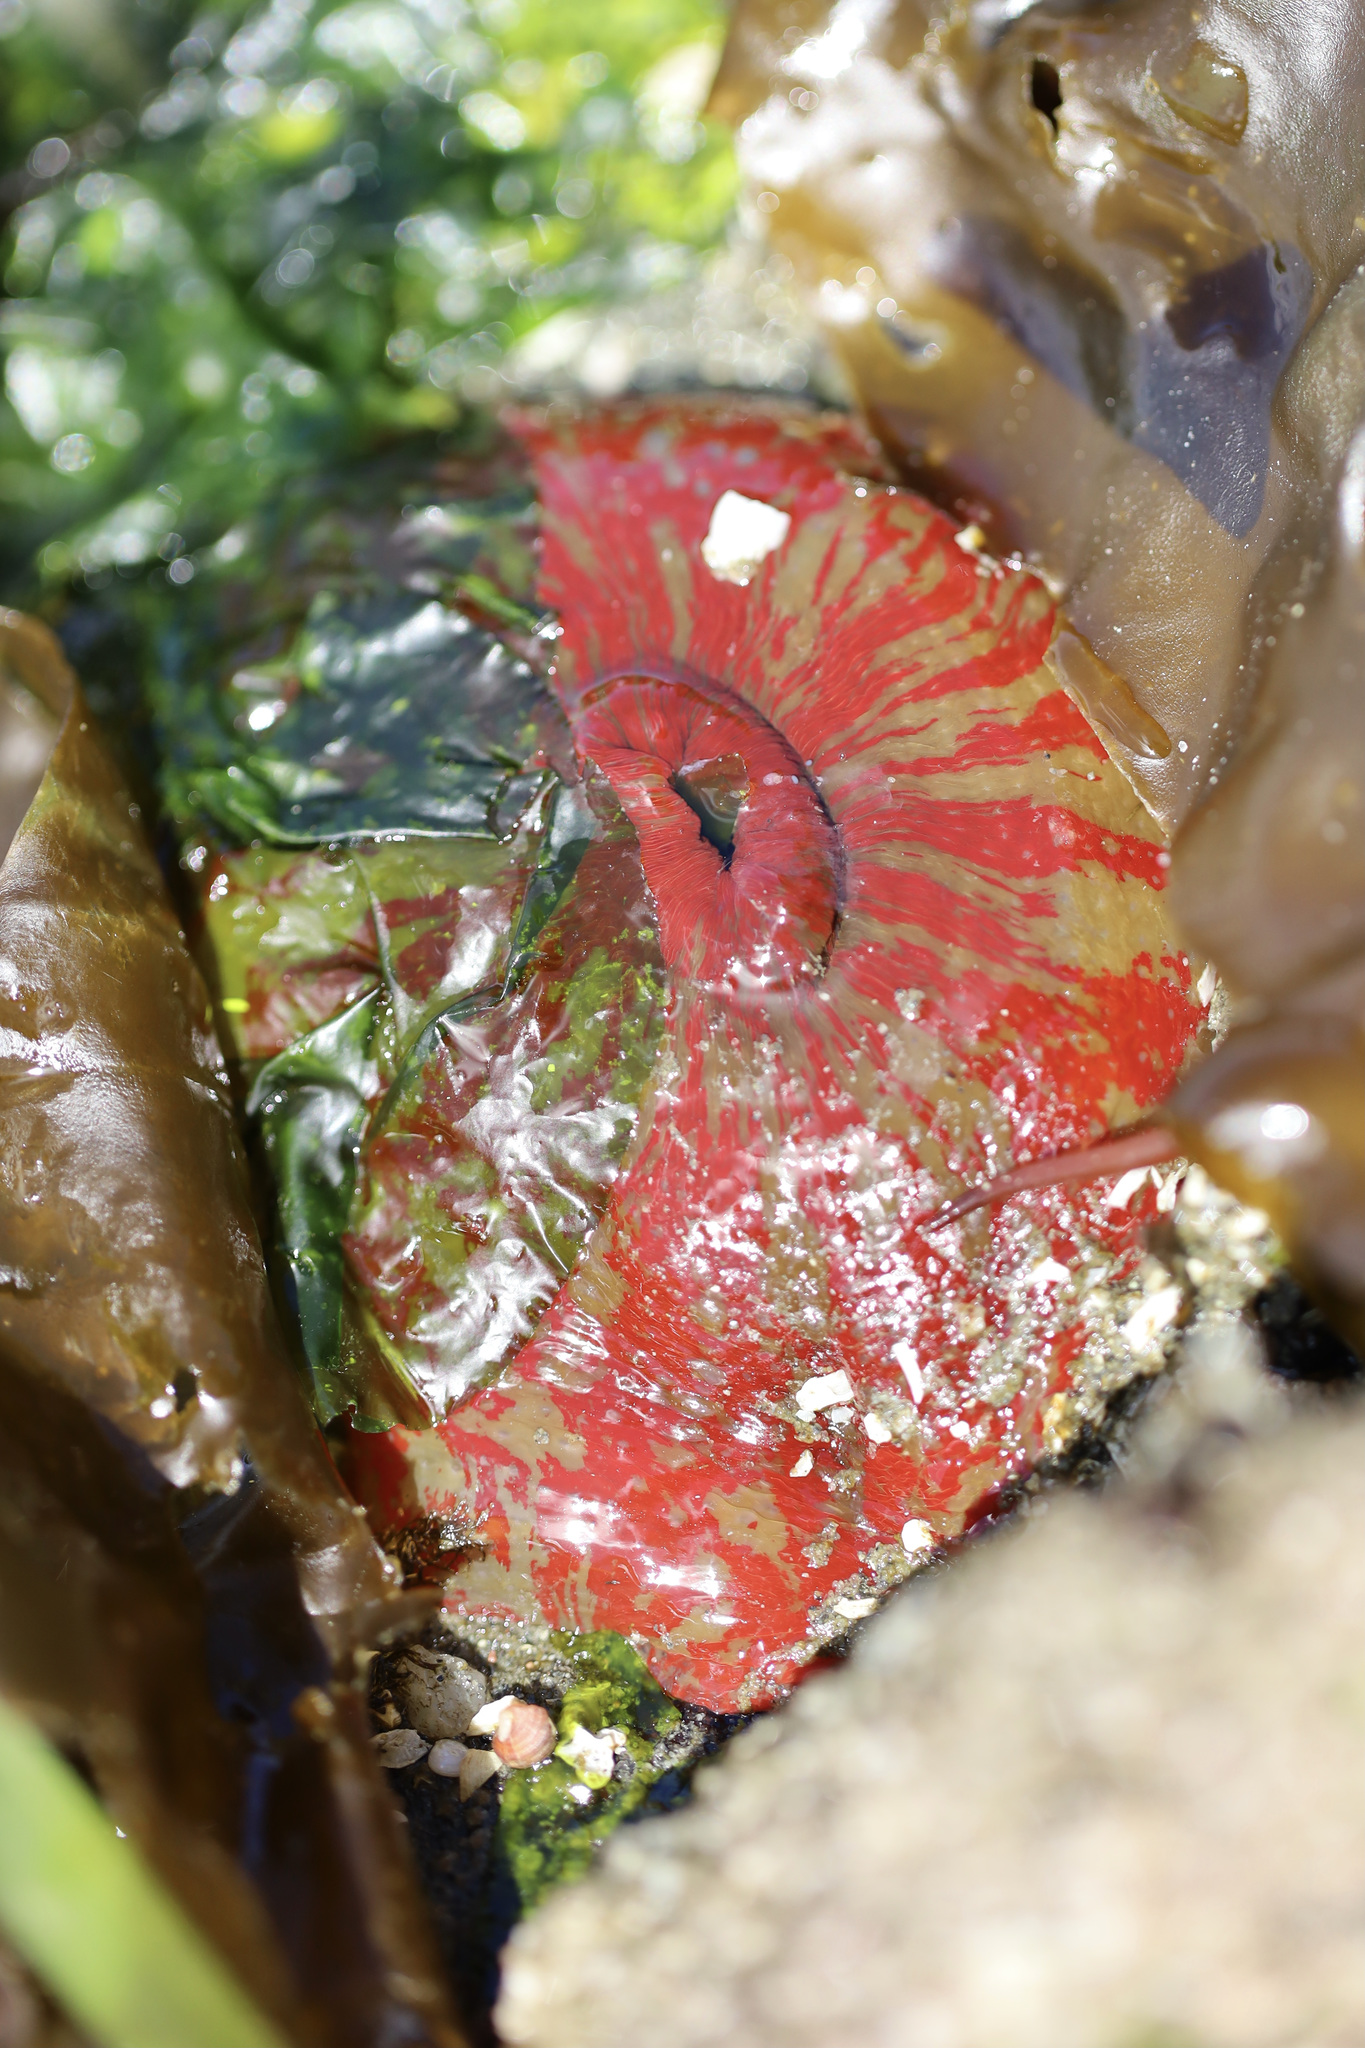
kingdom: Animalia
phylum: Cnidaria
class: Anthozoa
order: Actiniaria
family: Actiniidae
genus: Urticina
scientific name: Urticina grebelnyi
